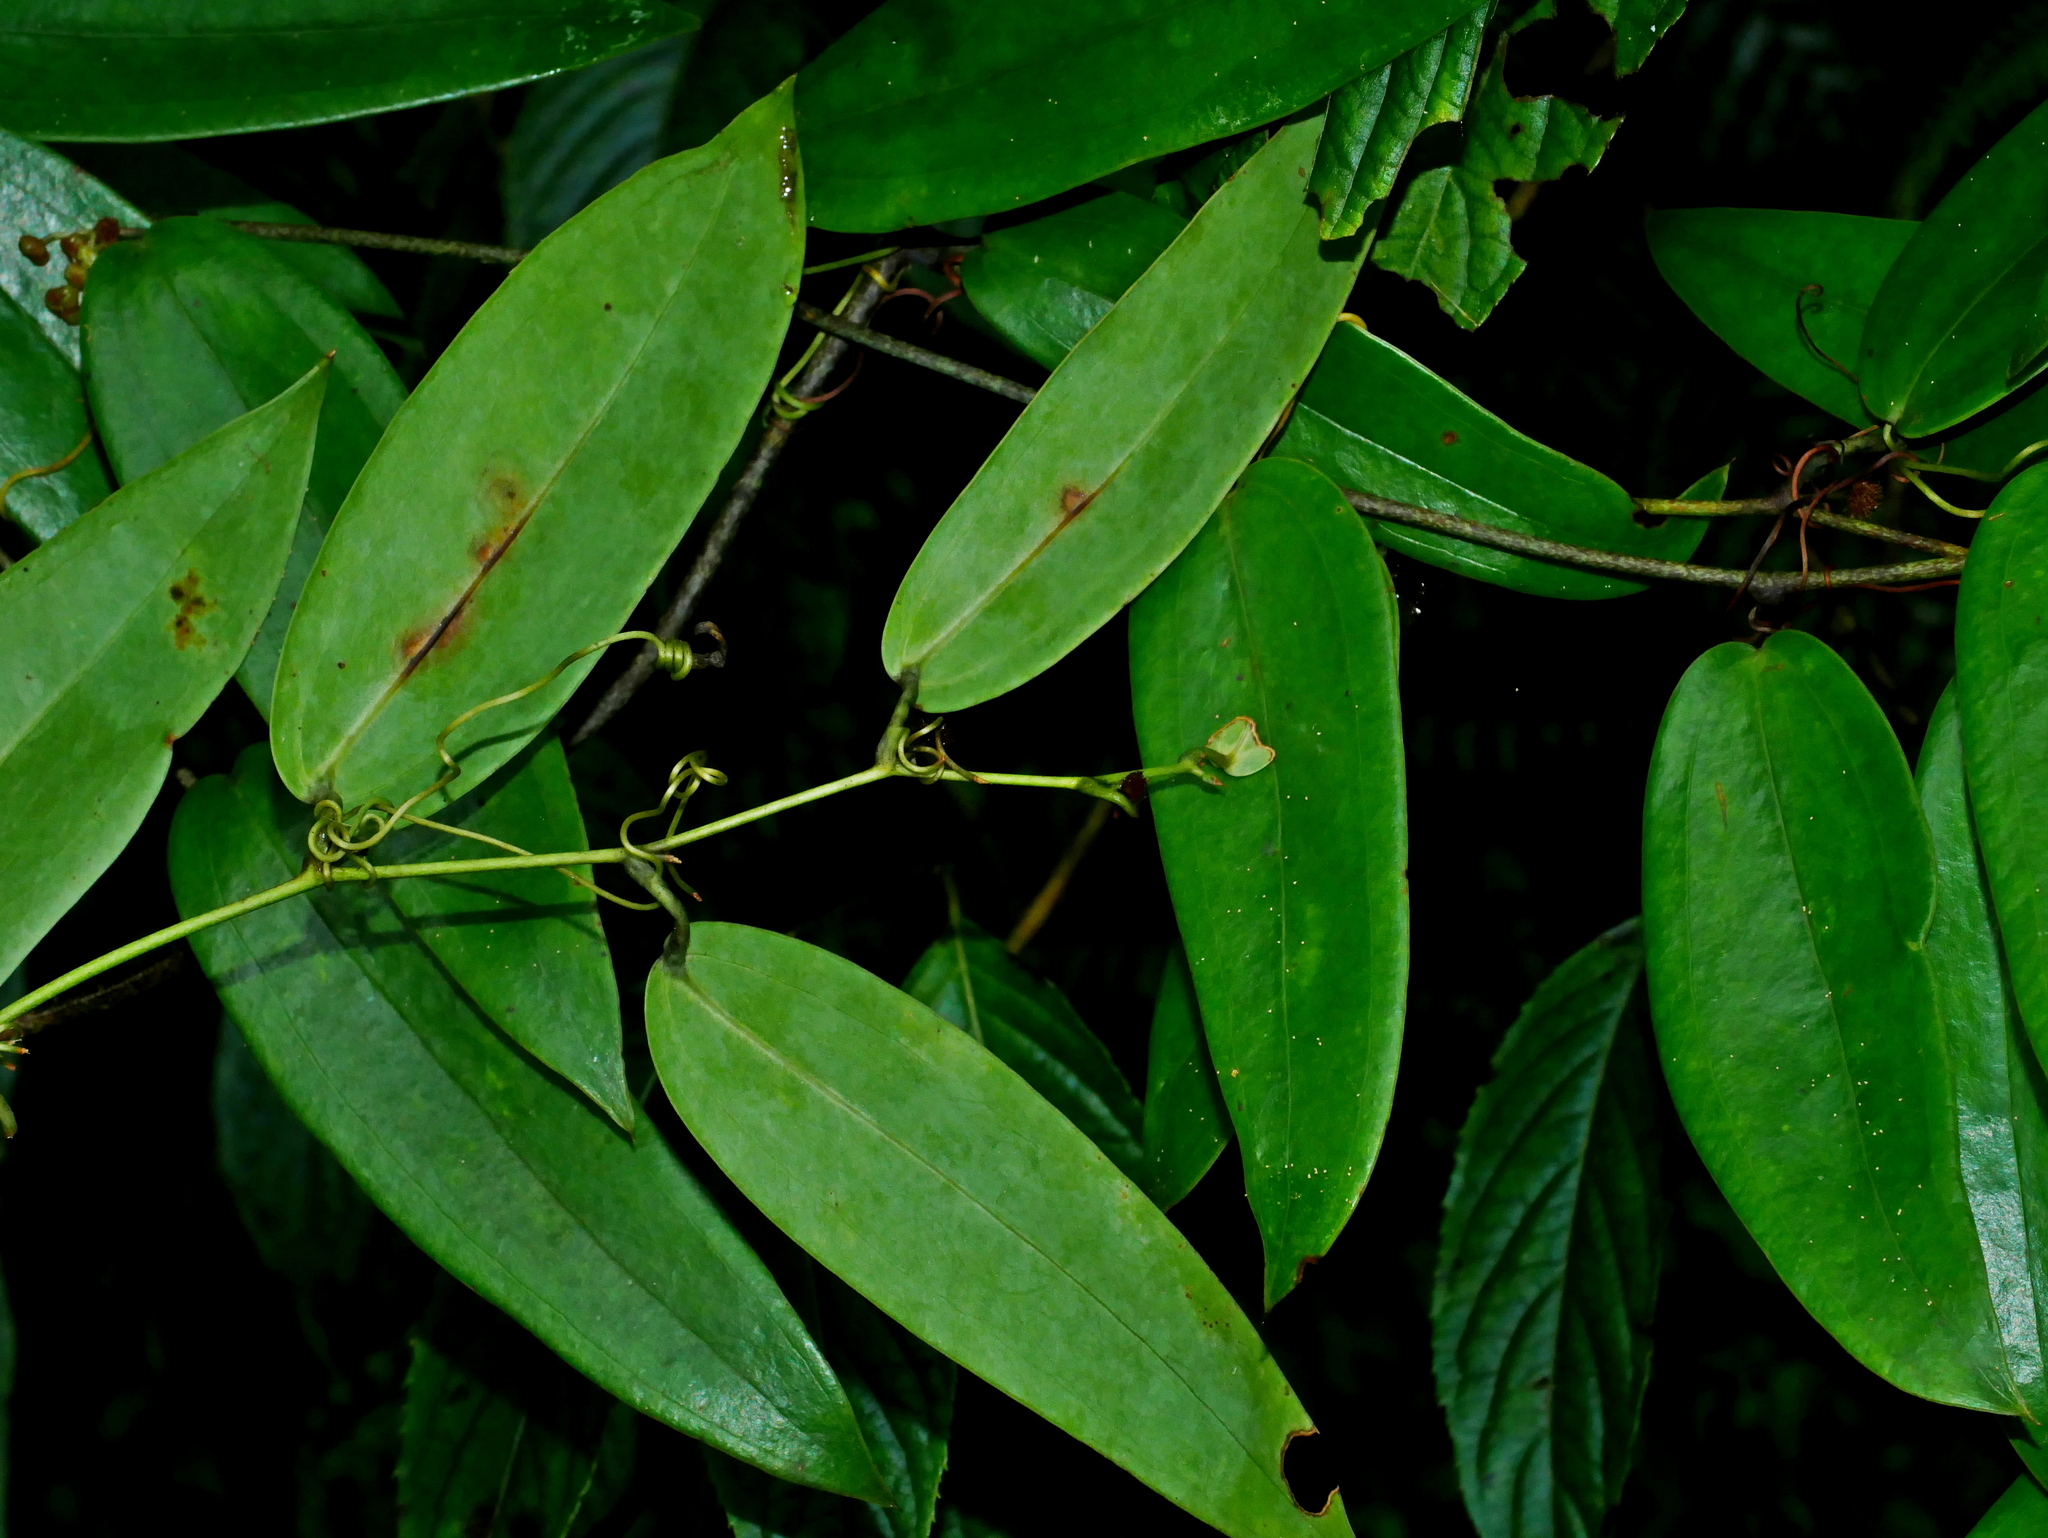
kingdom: Plantae
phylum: Tracheophyta
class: Liliopsida
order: Liliales
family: Smilacaceae
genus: Smilax
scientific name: Smilax glabra
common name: Chinese smilax
